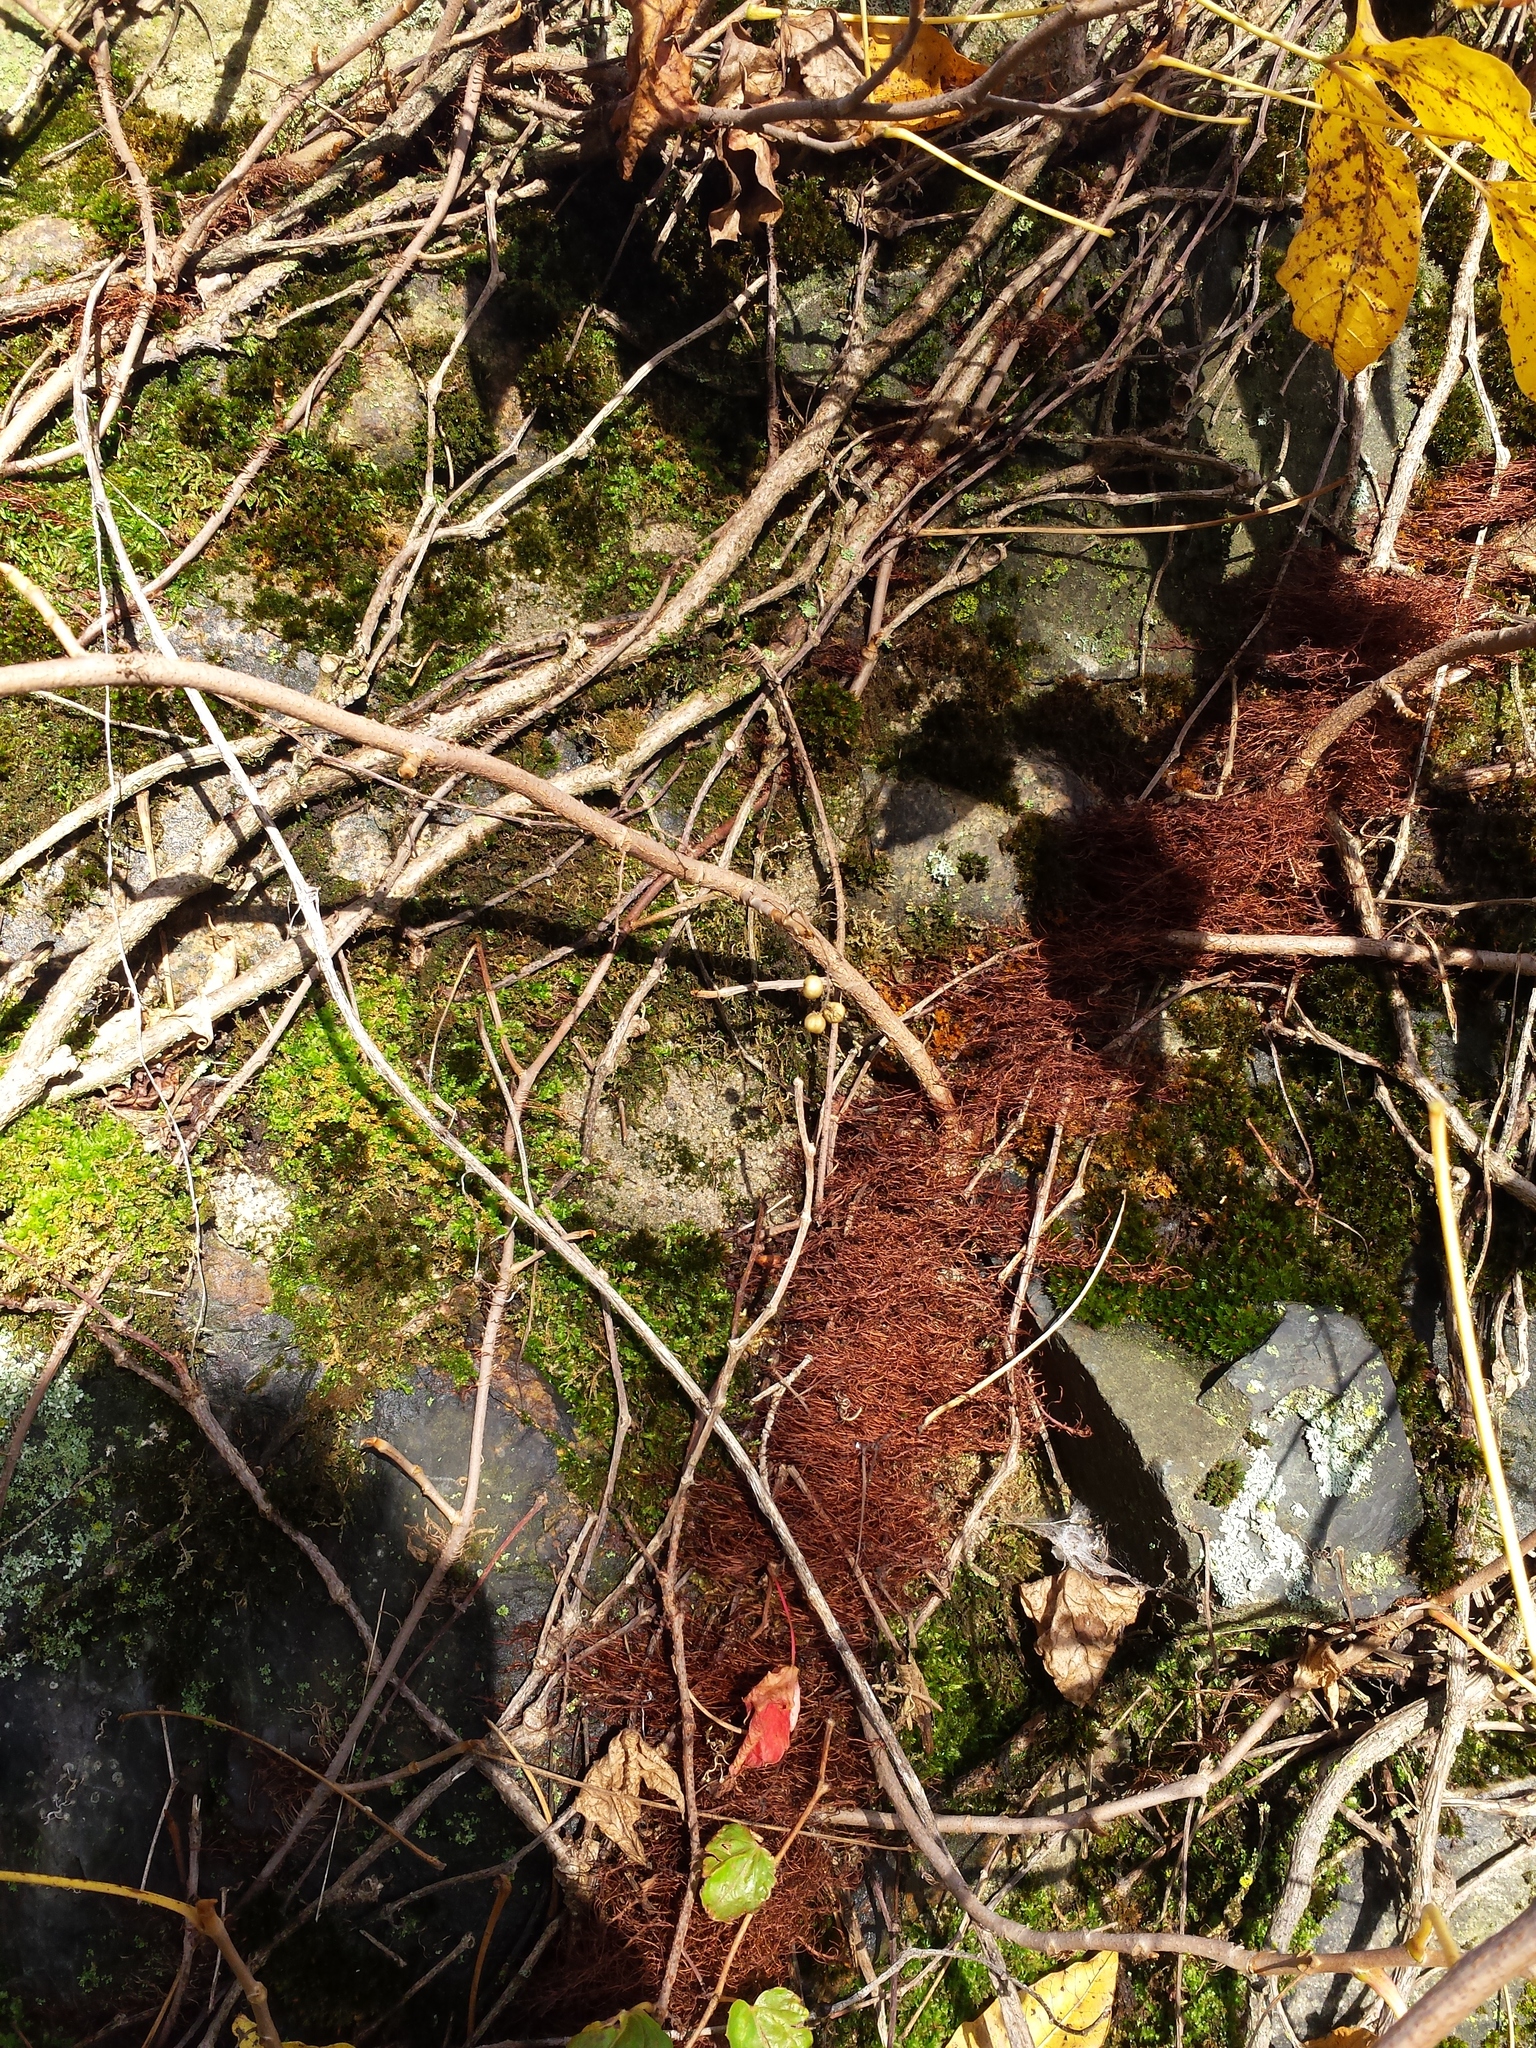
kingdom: Plantae
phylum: Tracheophyta
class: Magnoliopsida
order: Sapindales
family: Anacardiaceae
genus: Toxicodendron
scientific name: Toxicodendron radicans
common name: Poison ivy
